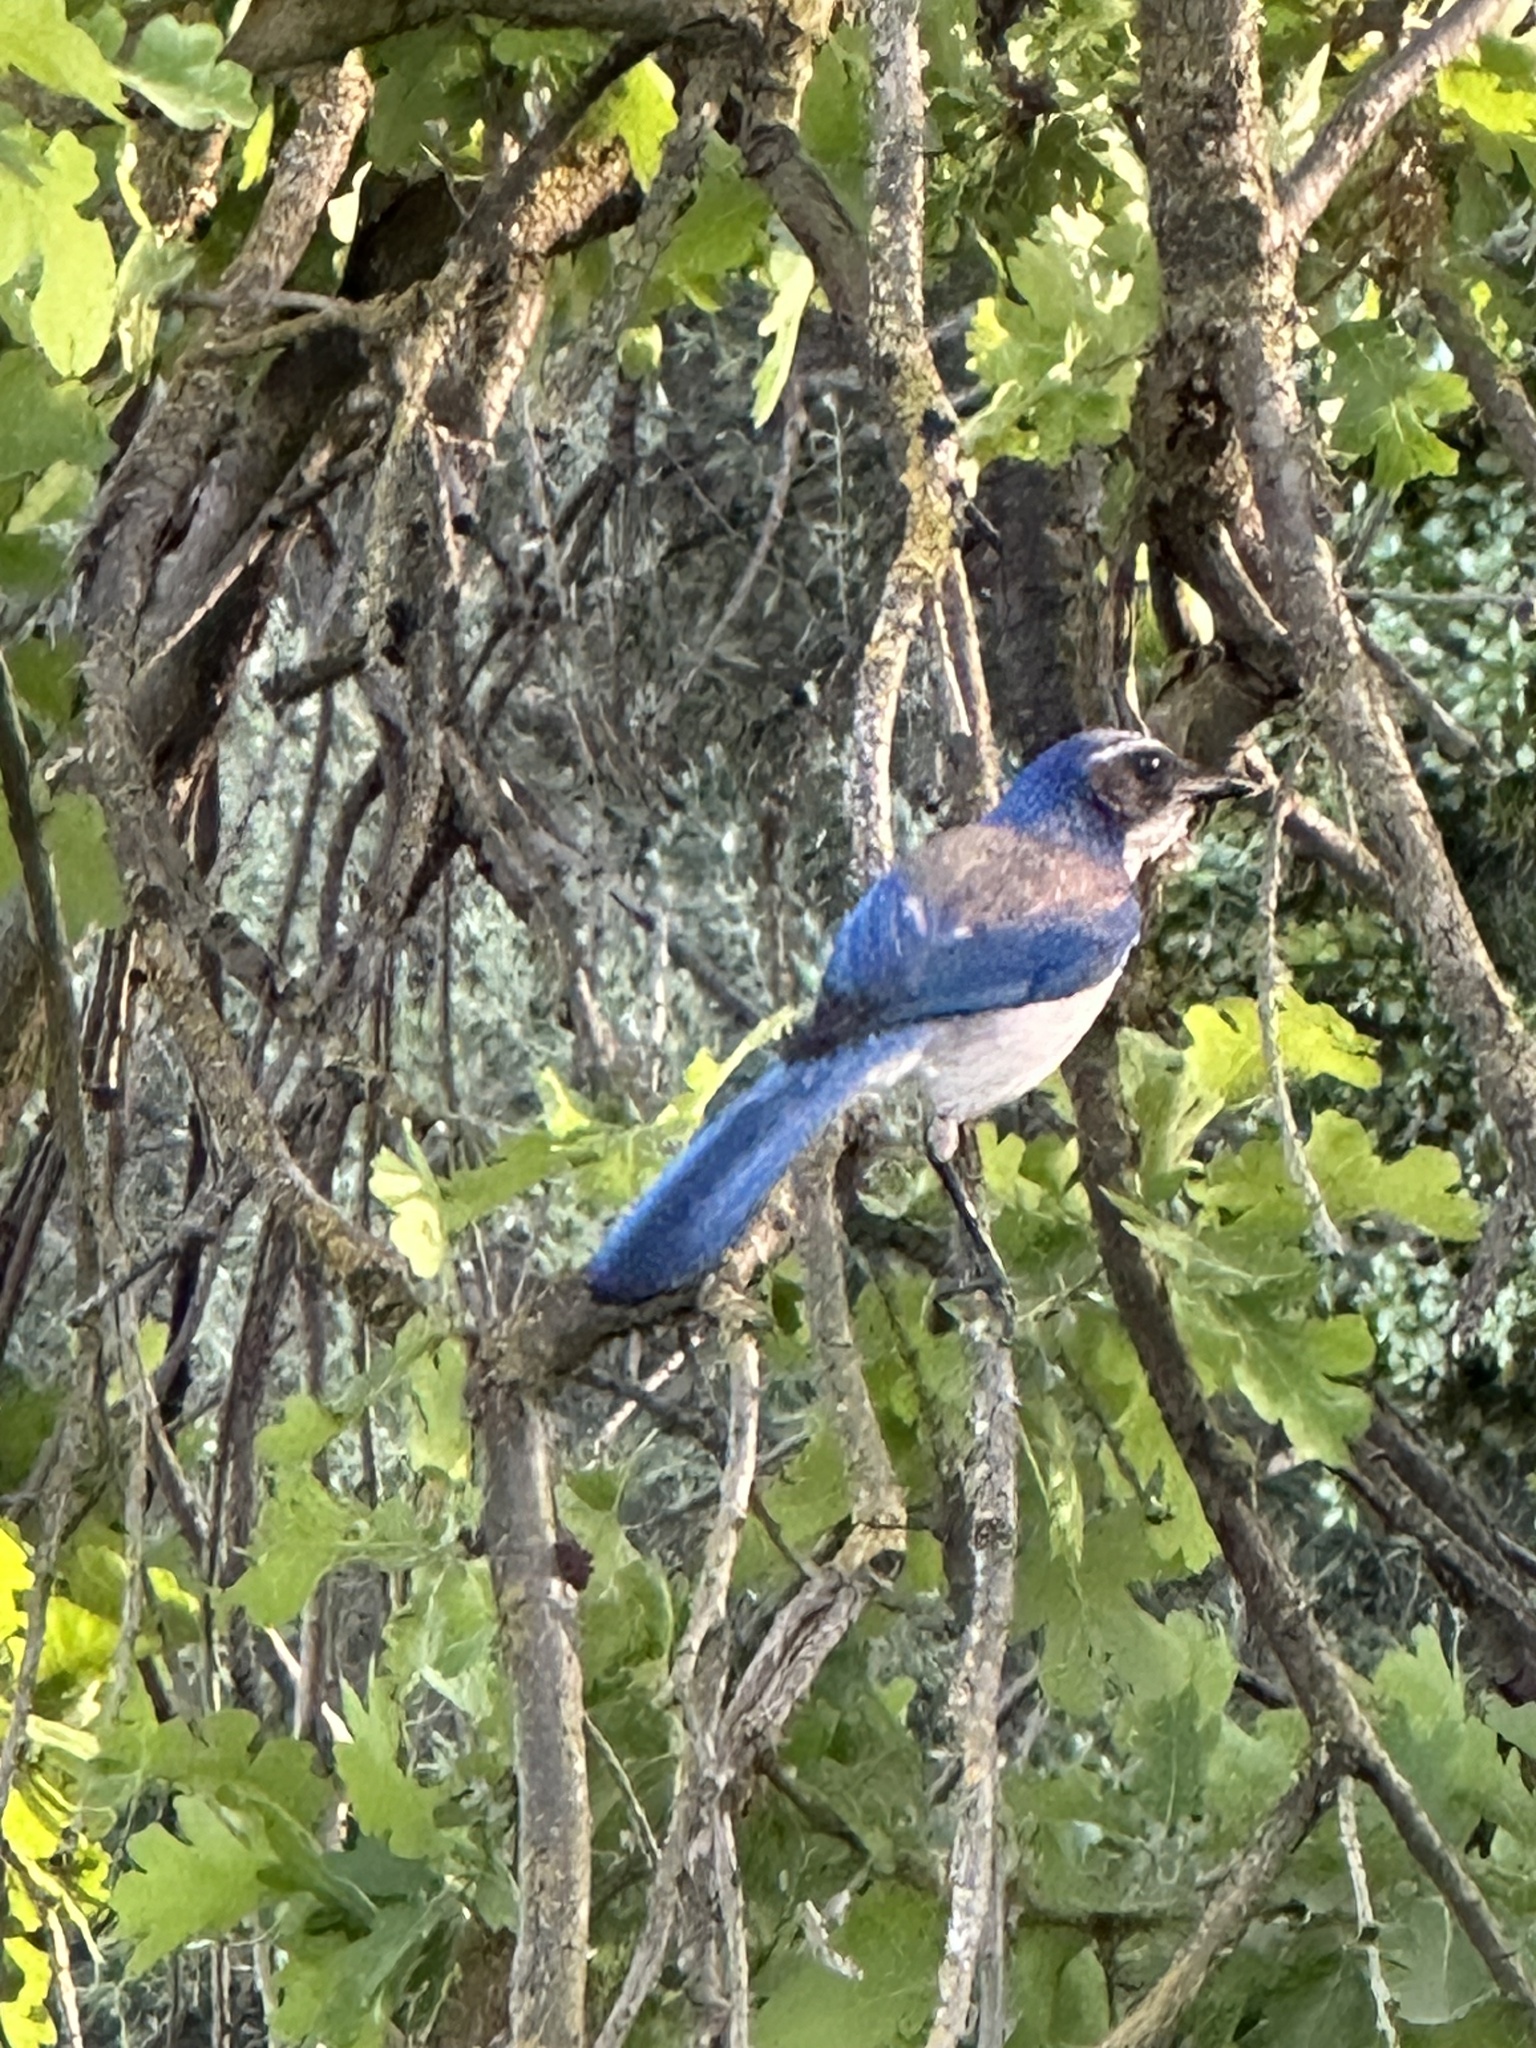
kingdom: Animalia
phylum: Chordata
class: Aves
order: Passeriformes
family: Corvidae
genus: Aphelocoma
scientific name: Aphelocoma californica
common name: California scrub-jay
